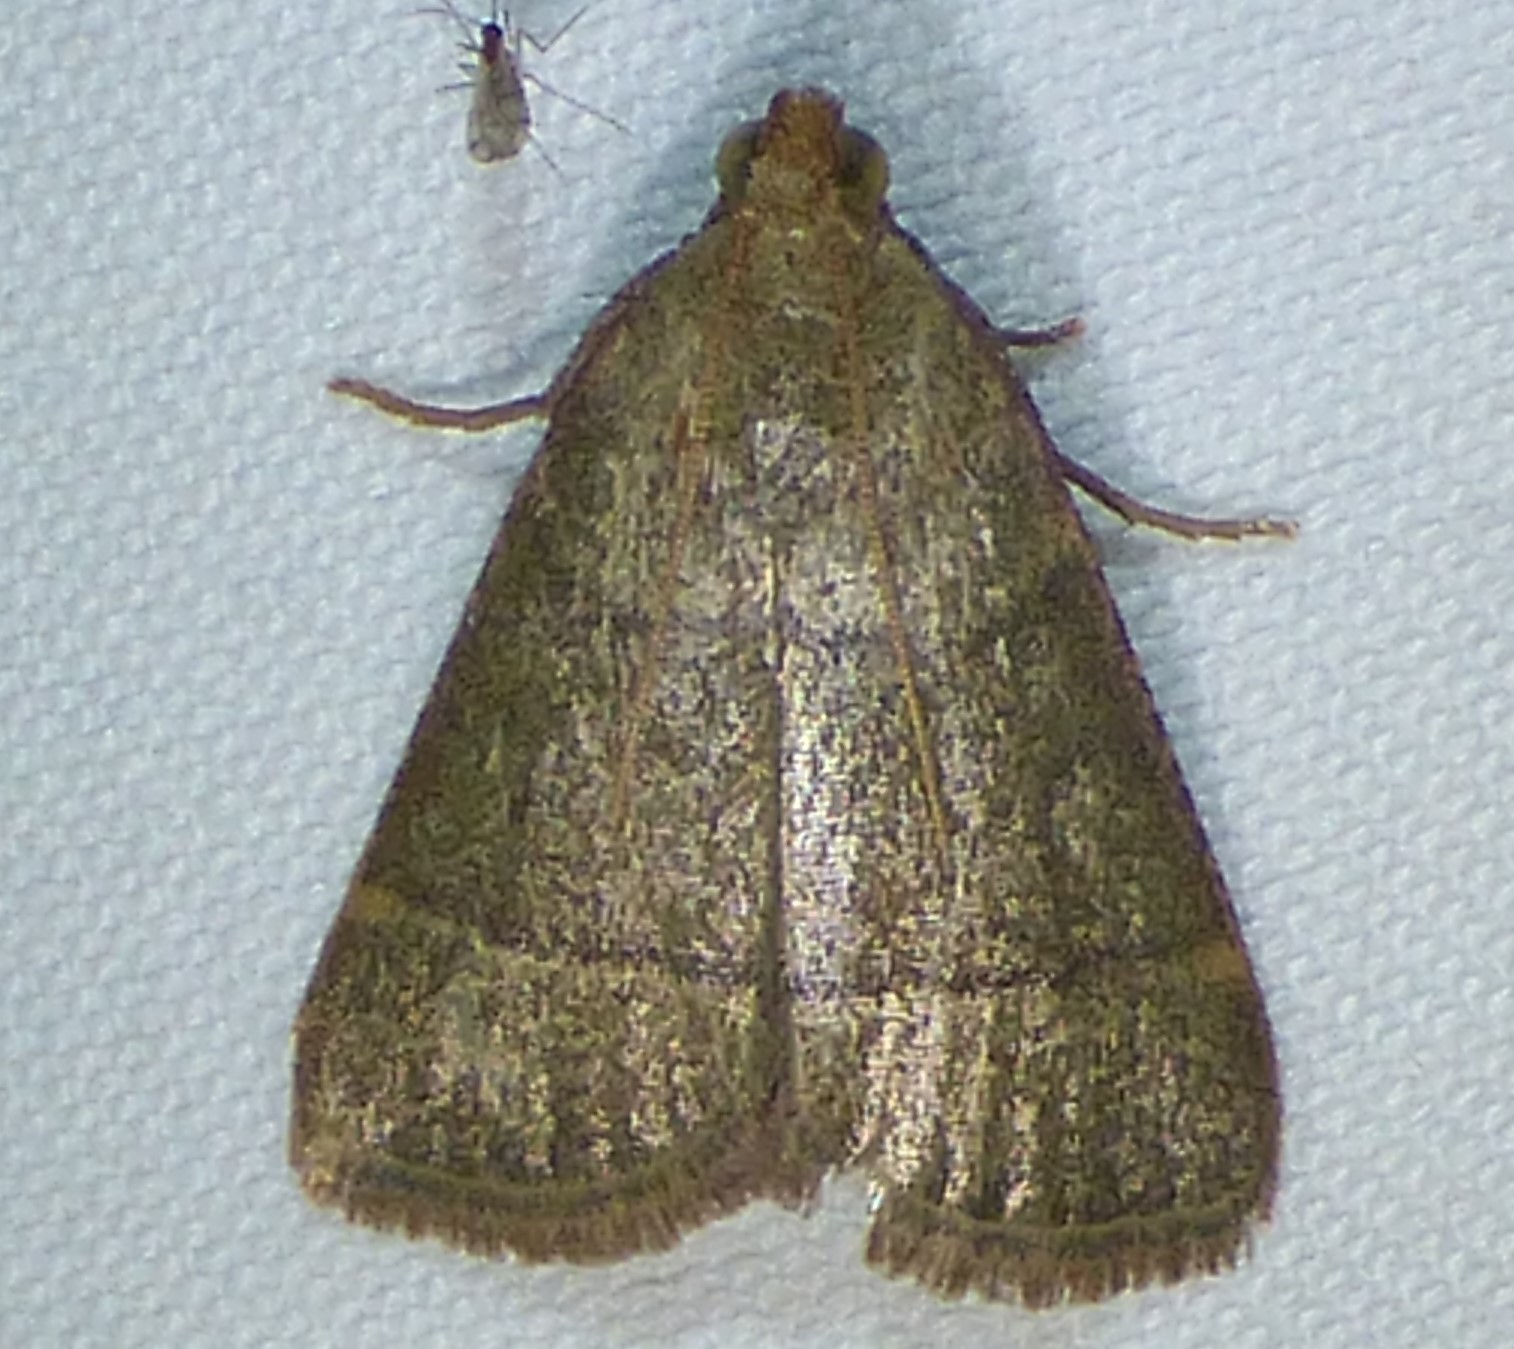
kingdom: Animalia
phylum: Arthropoda
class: Insecta
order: Lepidoptera
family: Pyralidae
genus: Hypsopygia
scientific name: Hypsopygia nostralis
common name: Southern hayworm moth
